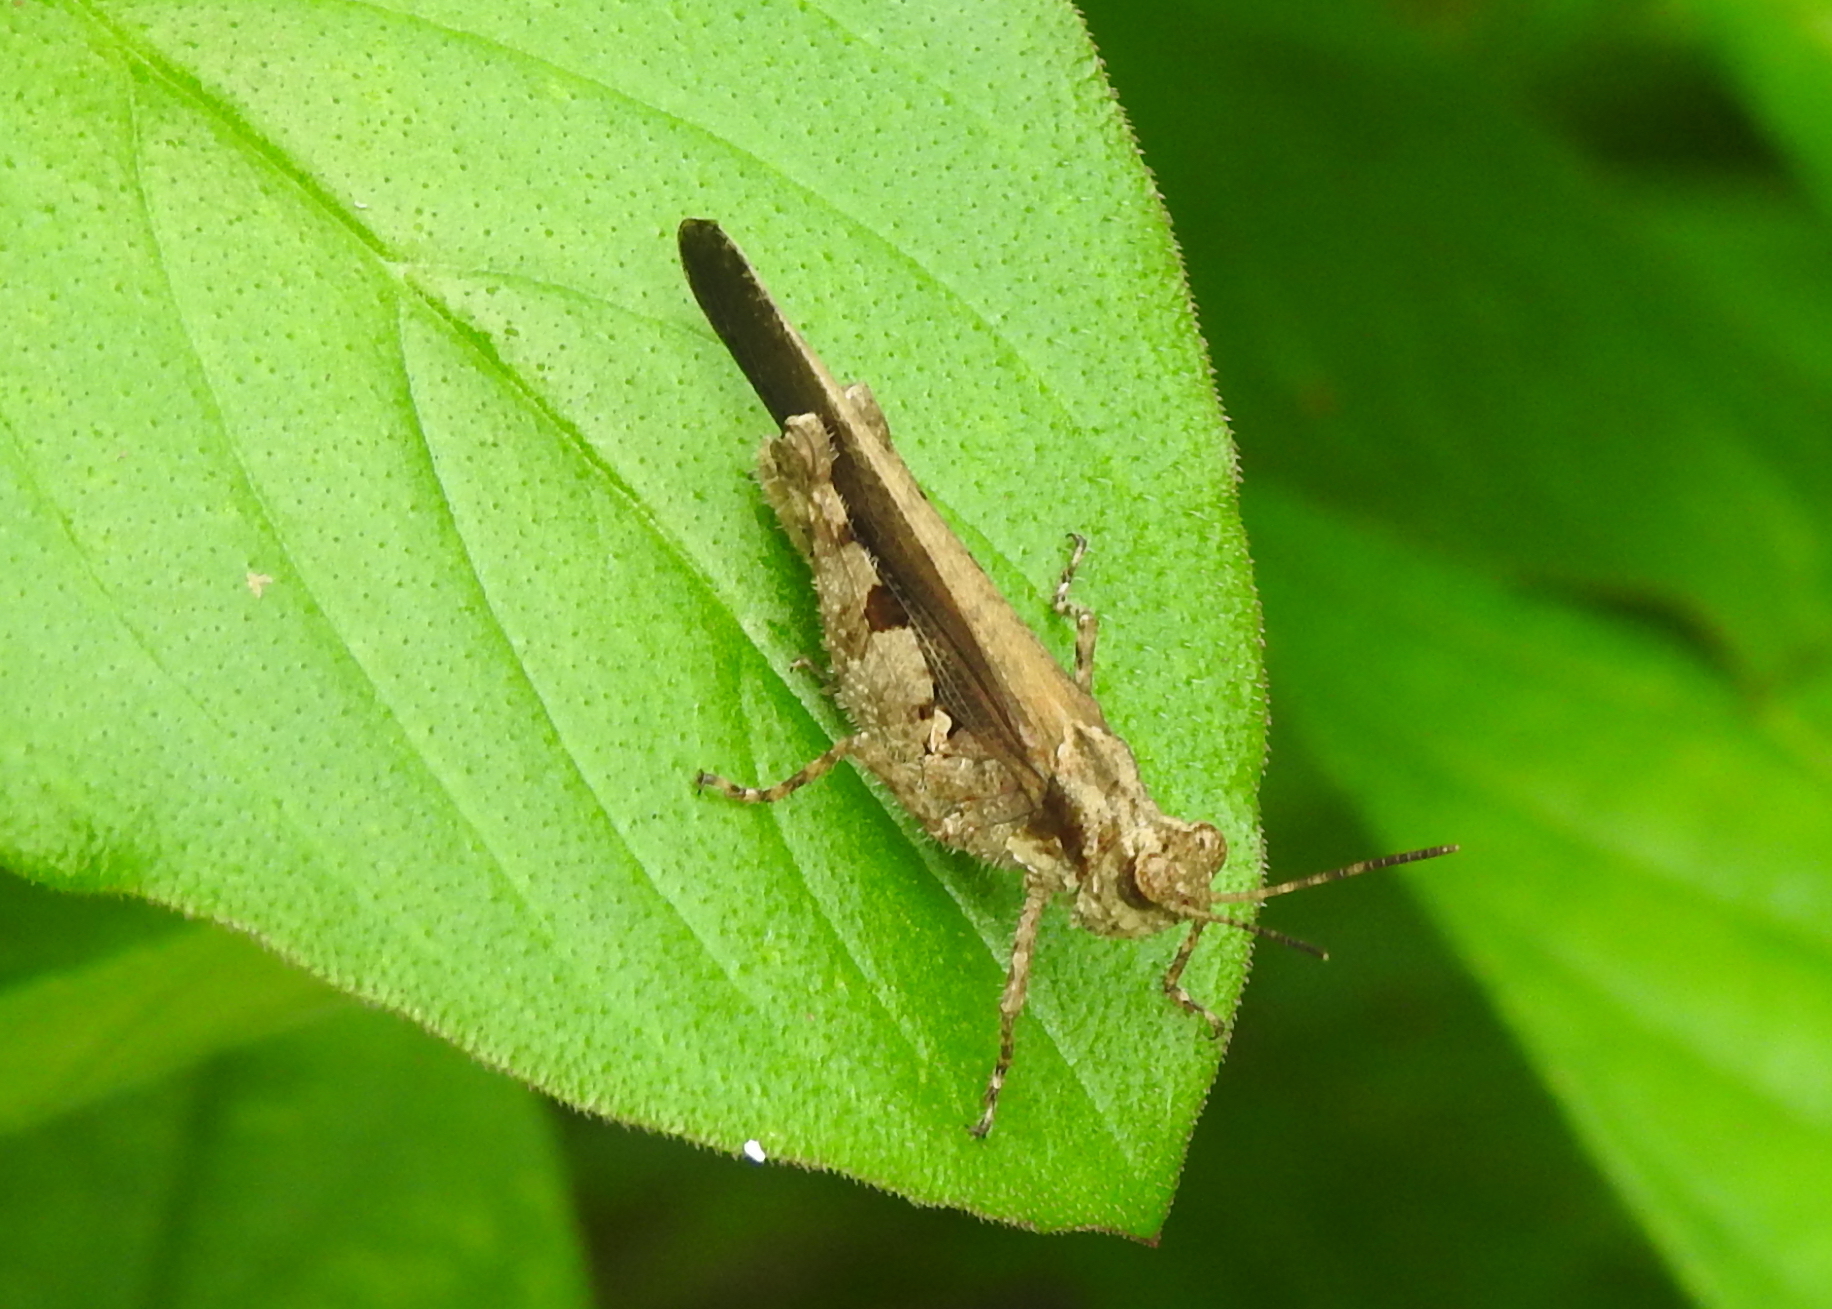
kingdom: Animalia
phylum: Arthropoda
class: Insecta
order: Orthoptera
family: Acrididae
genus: Trilophidia
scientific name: Trilophidia annulata
